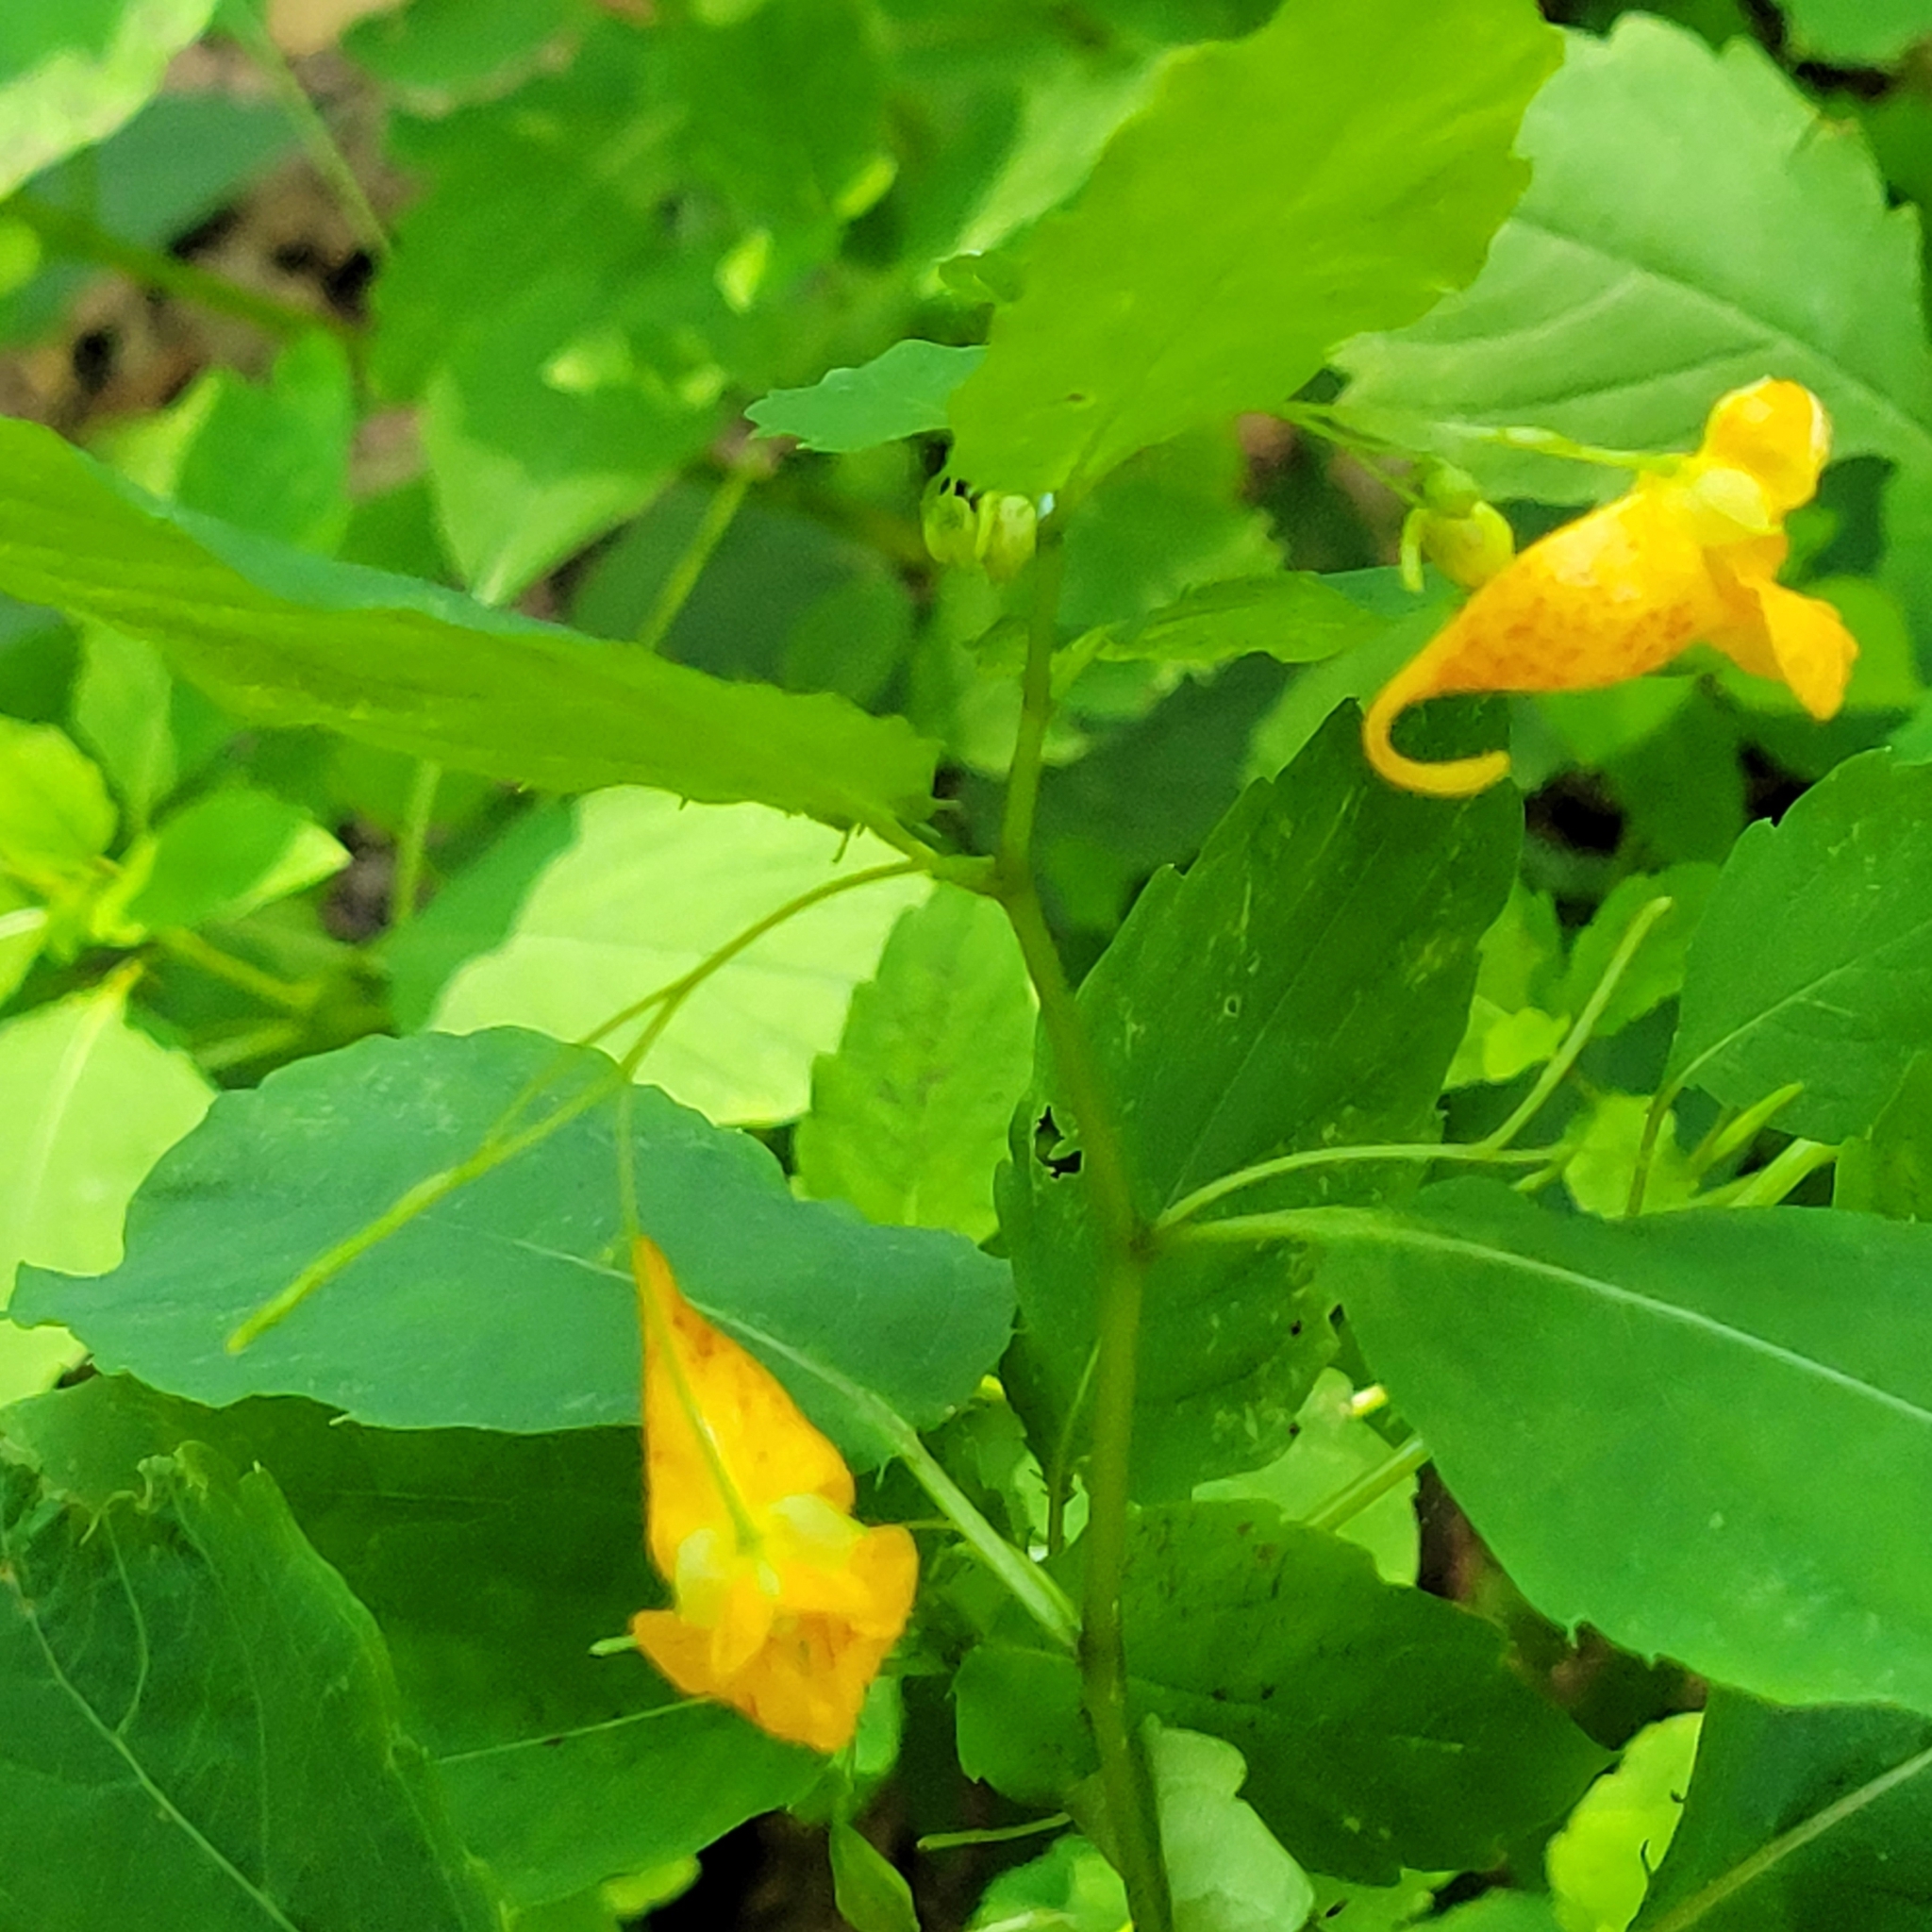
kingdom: Plantae
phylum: Tracheophyta
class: Magnoliopsida
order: Ericales
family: Balsaminaceae
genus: Impatiens
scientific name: Impatiens capensis
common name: Orange balsam
